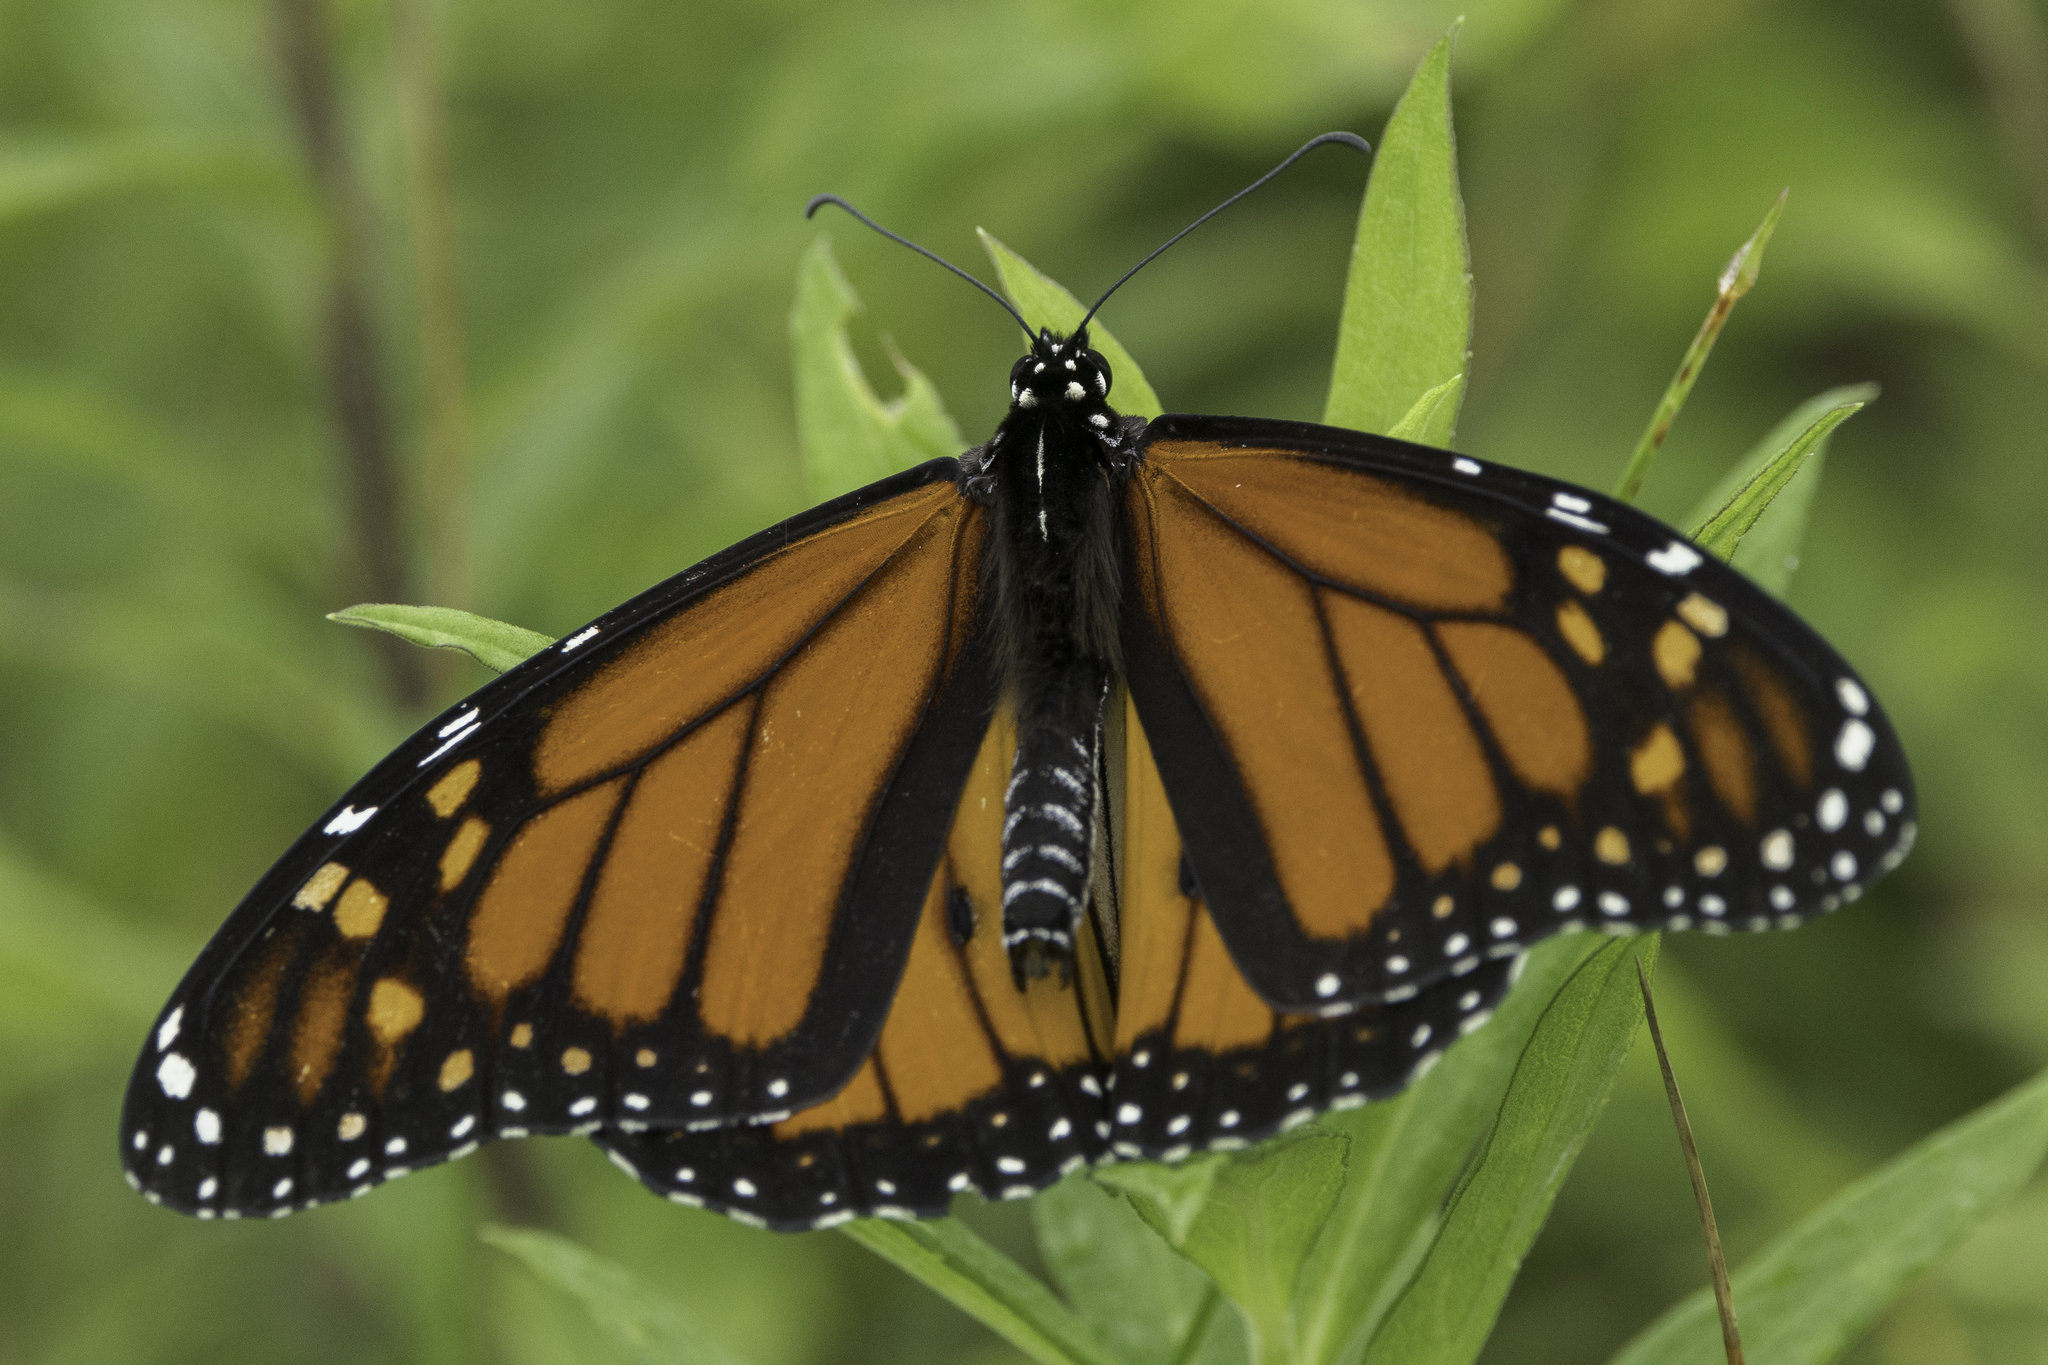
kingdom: Animalia
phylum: Arthropoda
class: Insecta
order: Lepidoptera
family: Nymphalidae
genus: Danaus
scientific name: Danaus plexippus
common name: Monarch
